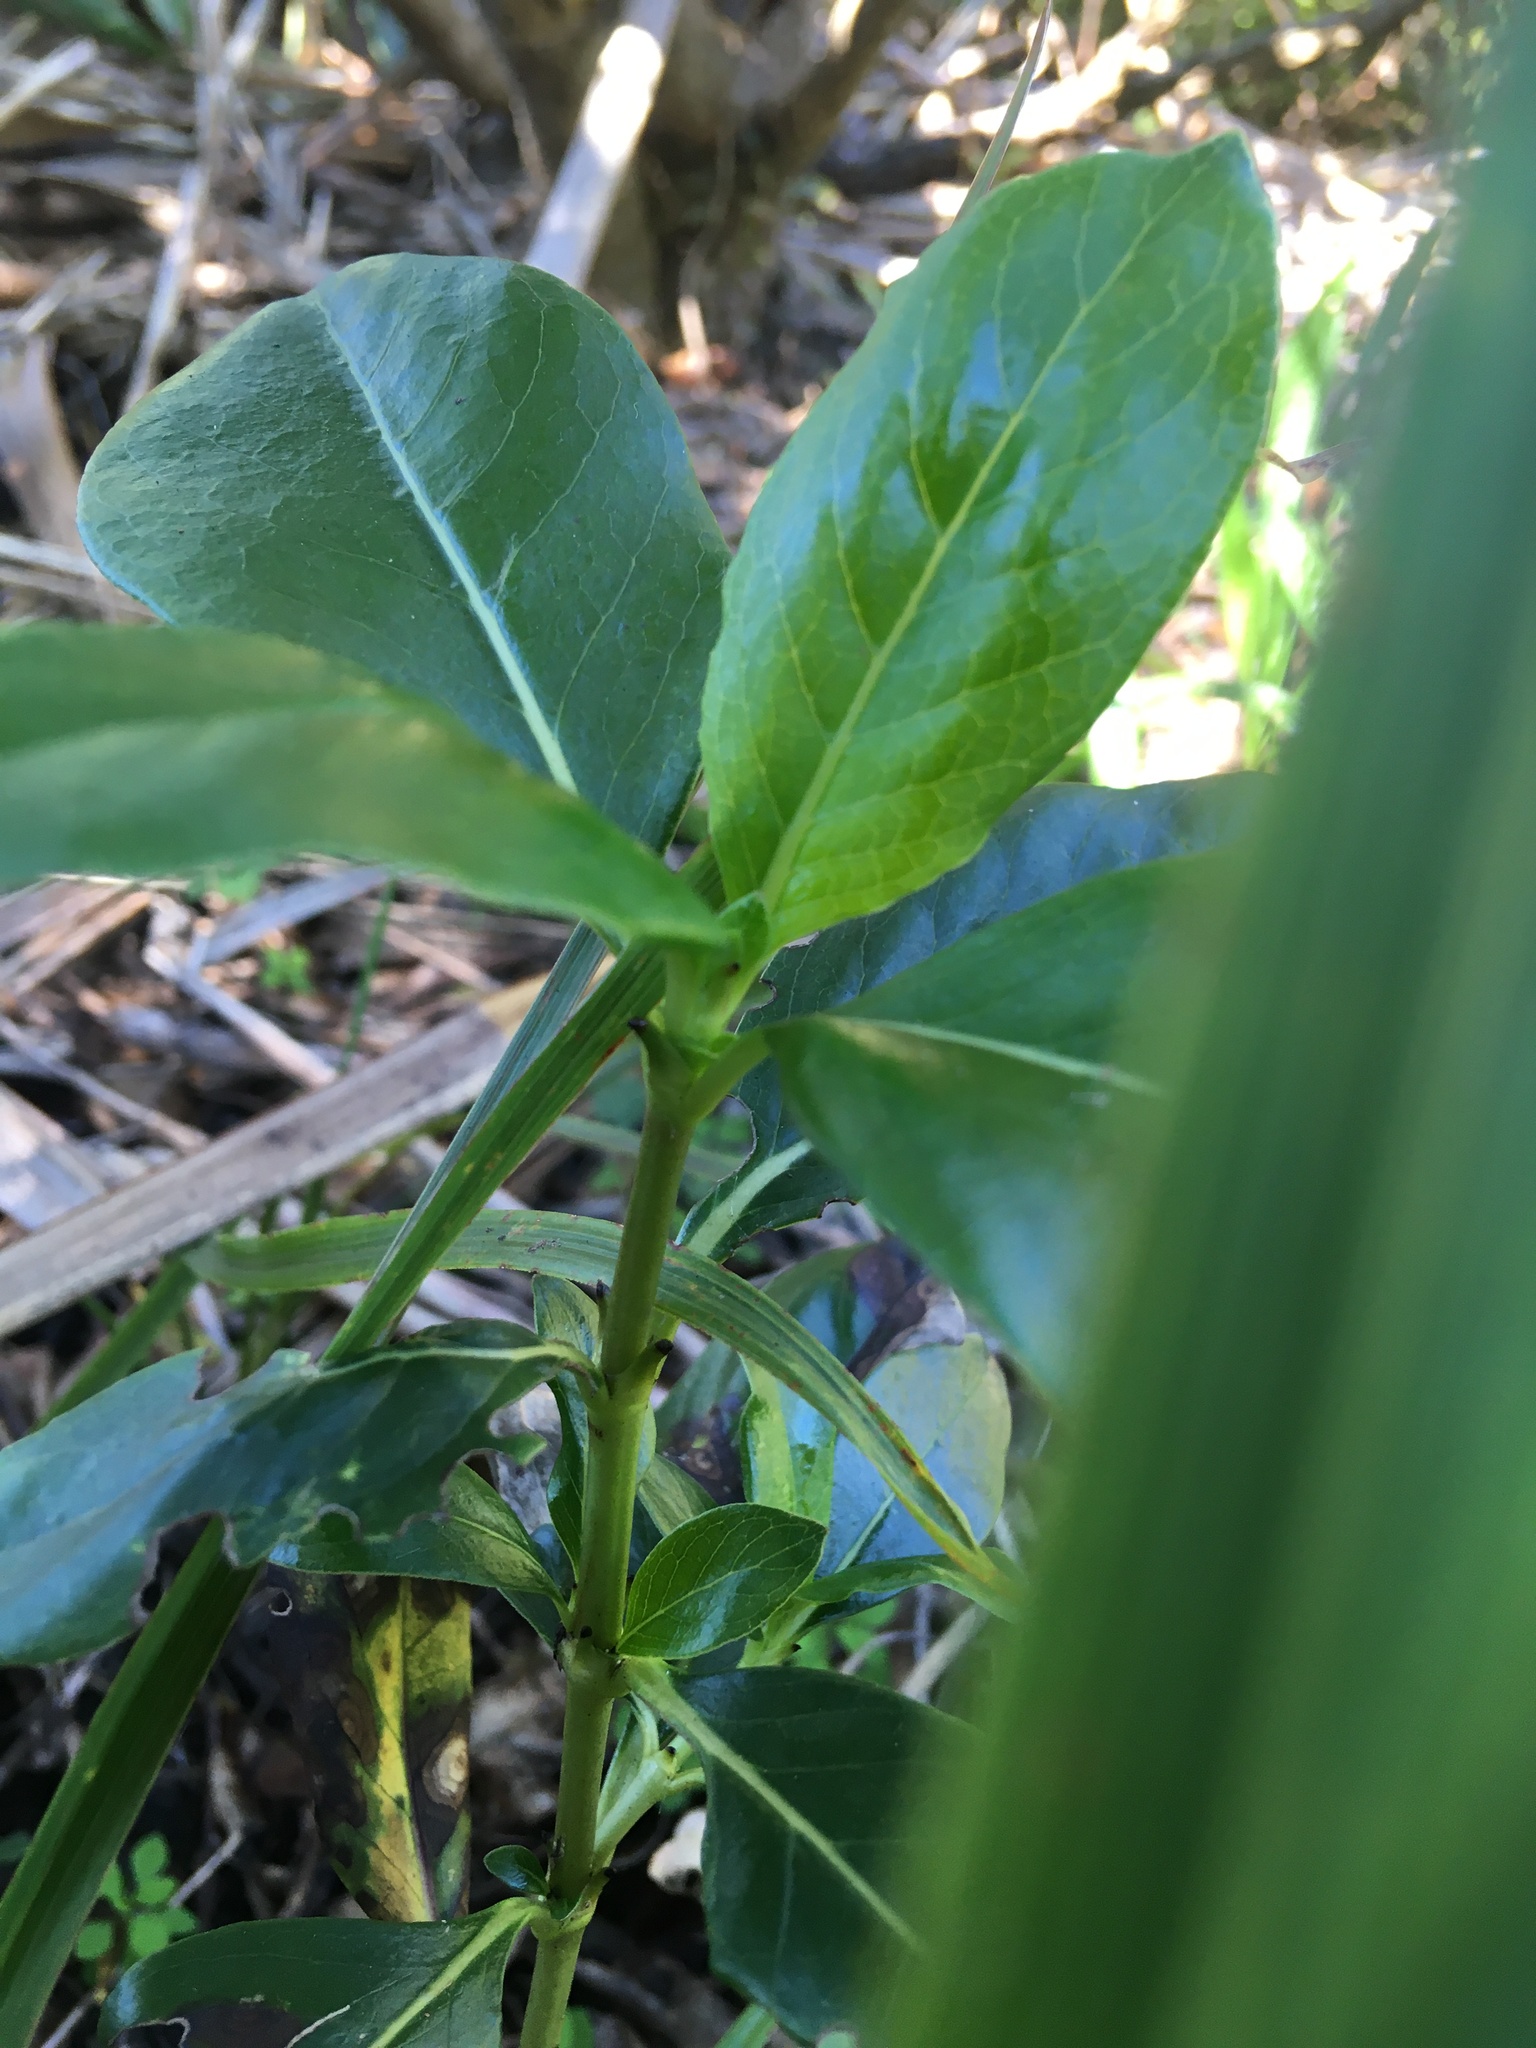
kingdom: Plantae
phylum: Tracheophyta
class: Magnoliopsida
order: Gentianales
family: Rubiaceae
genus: Coprosma
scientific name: Coprosma robusta
